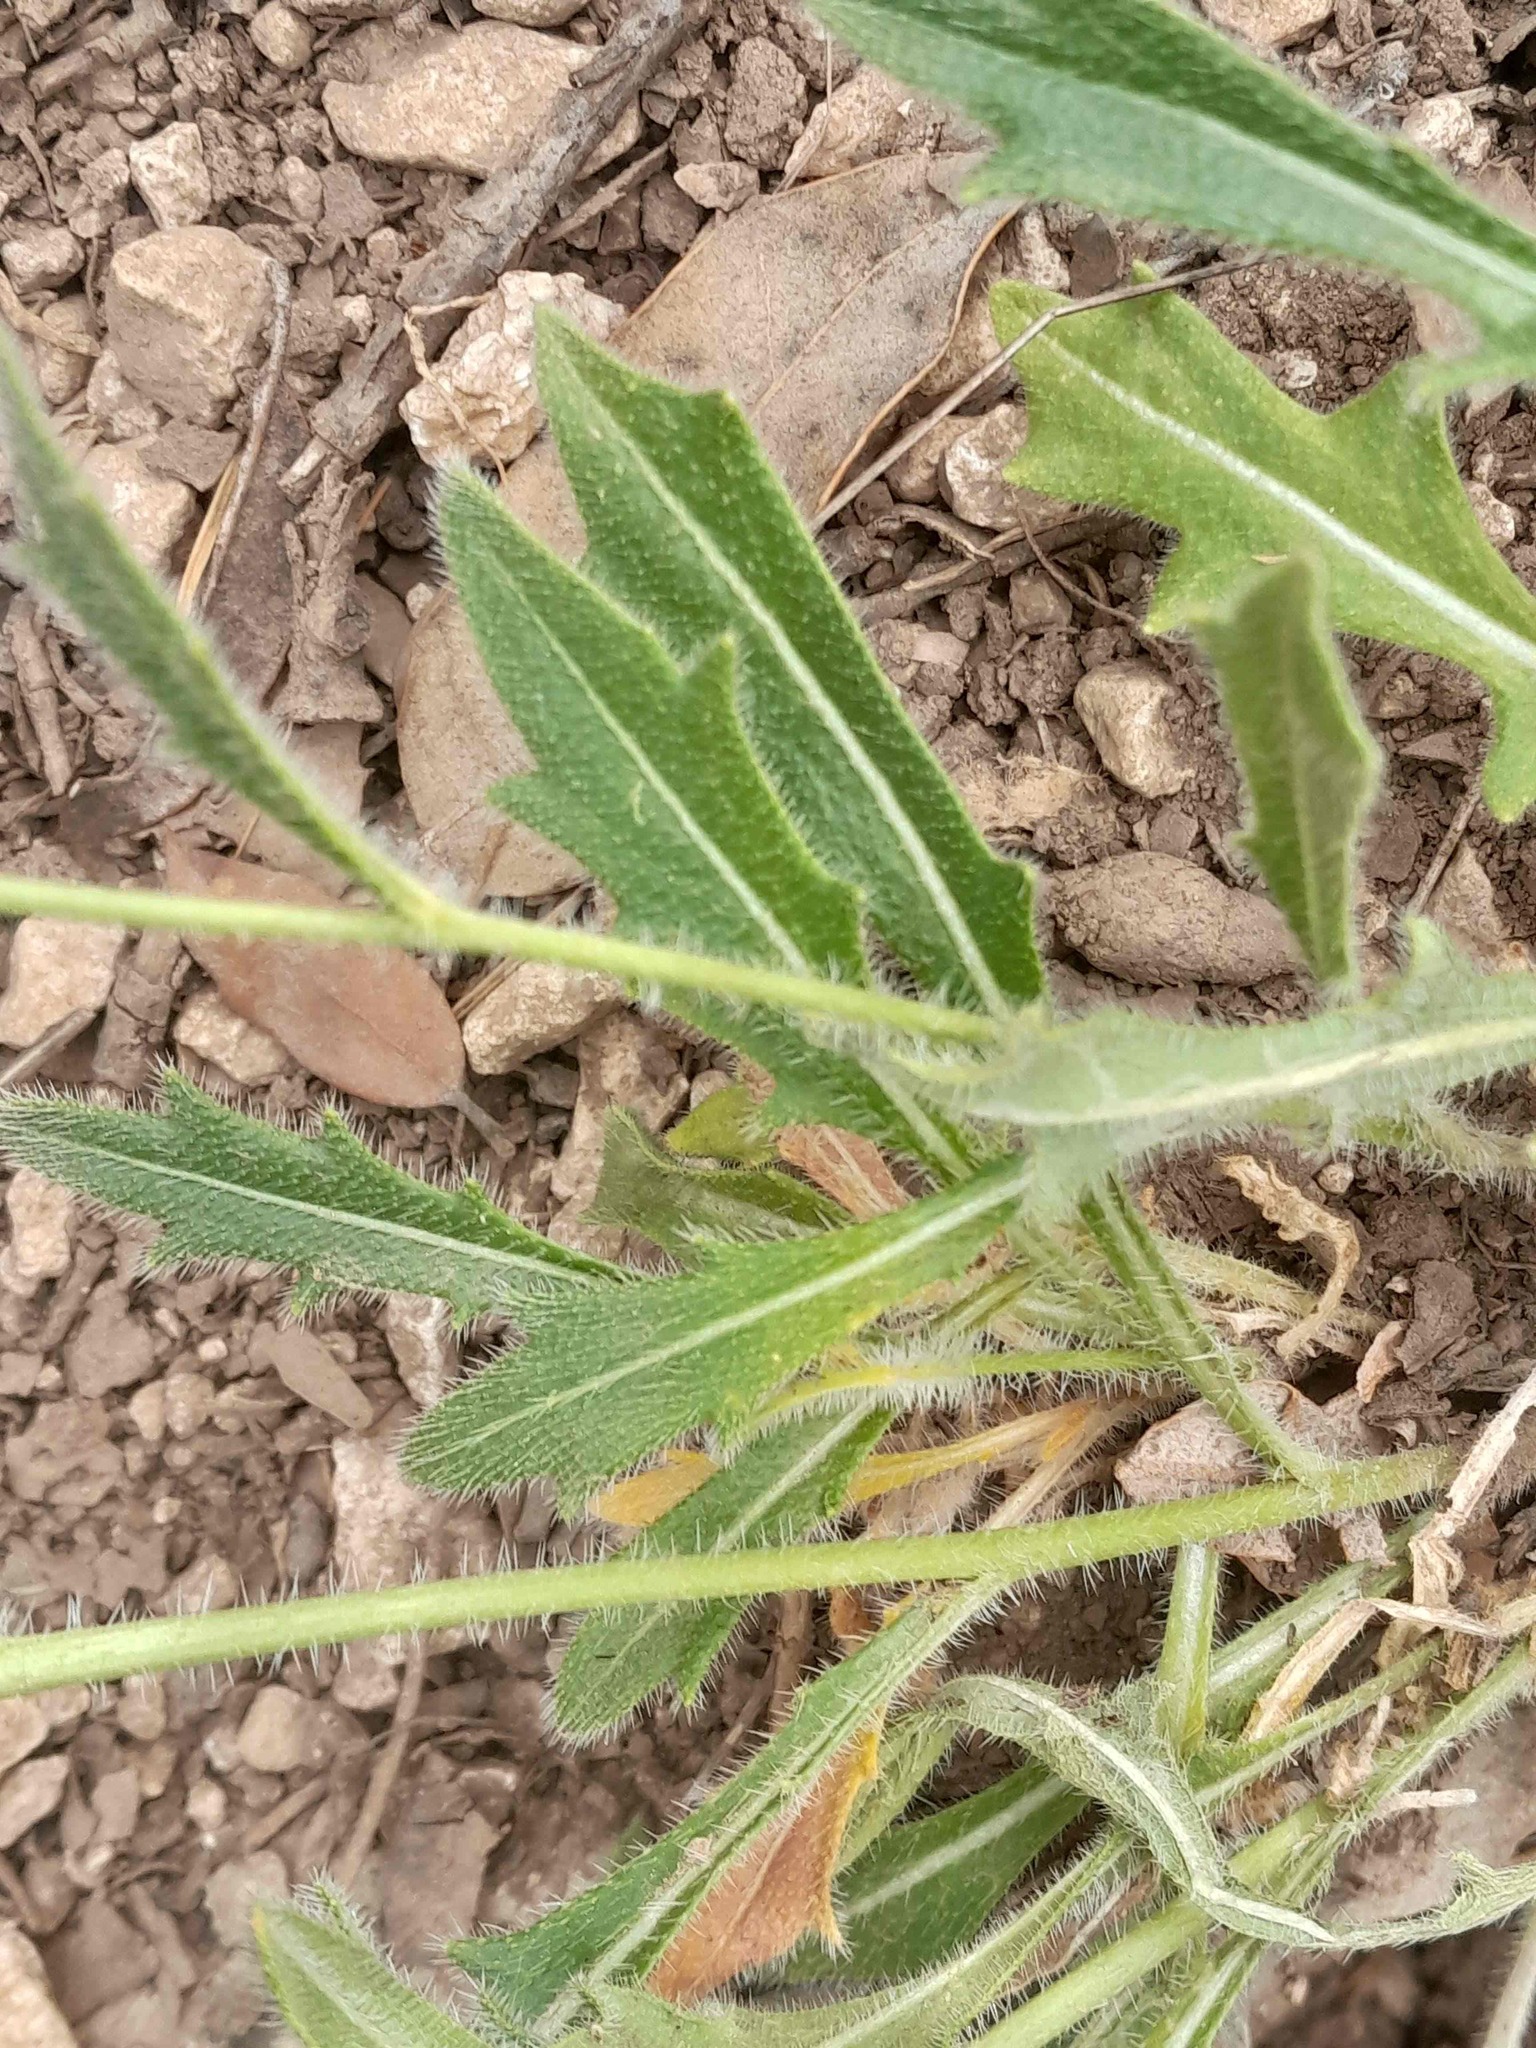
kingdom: Plantae
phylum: Tracheophyta
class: Magnoliopsida
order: Brassicales
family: Brassicaceae
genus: Biscutella
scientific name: Biscutella laevigata
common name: Buckler mustard
